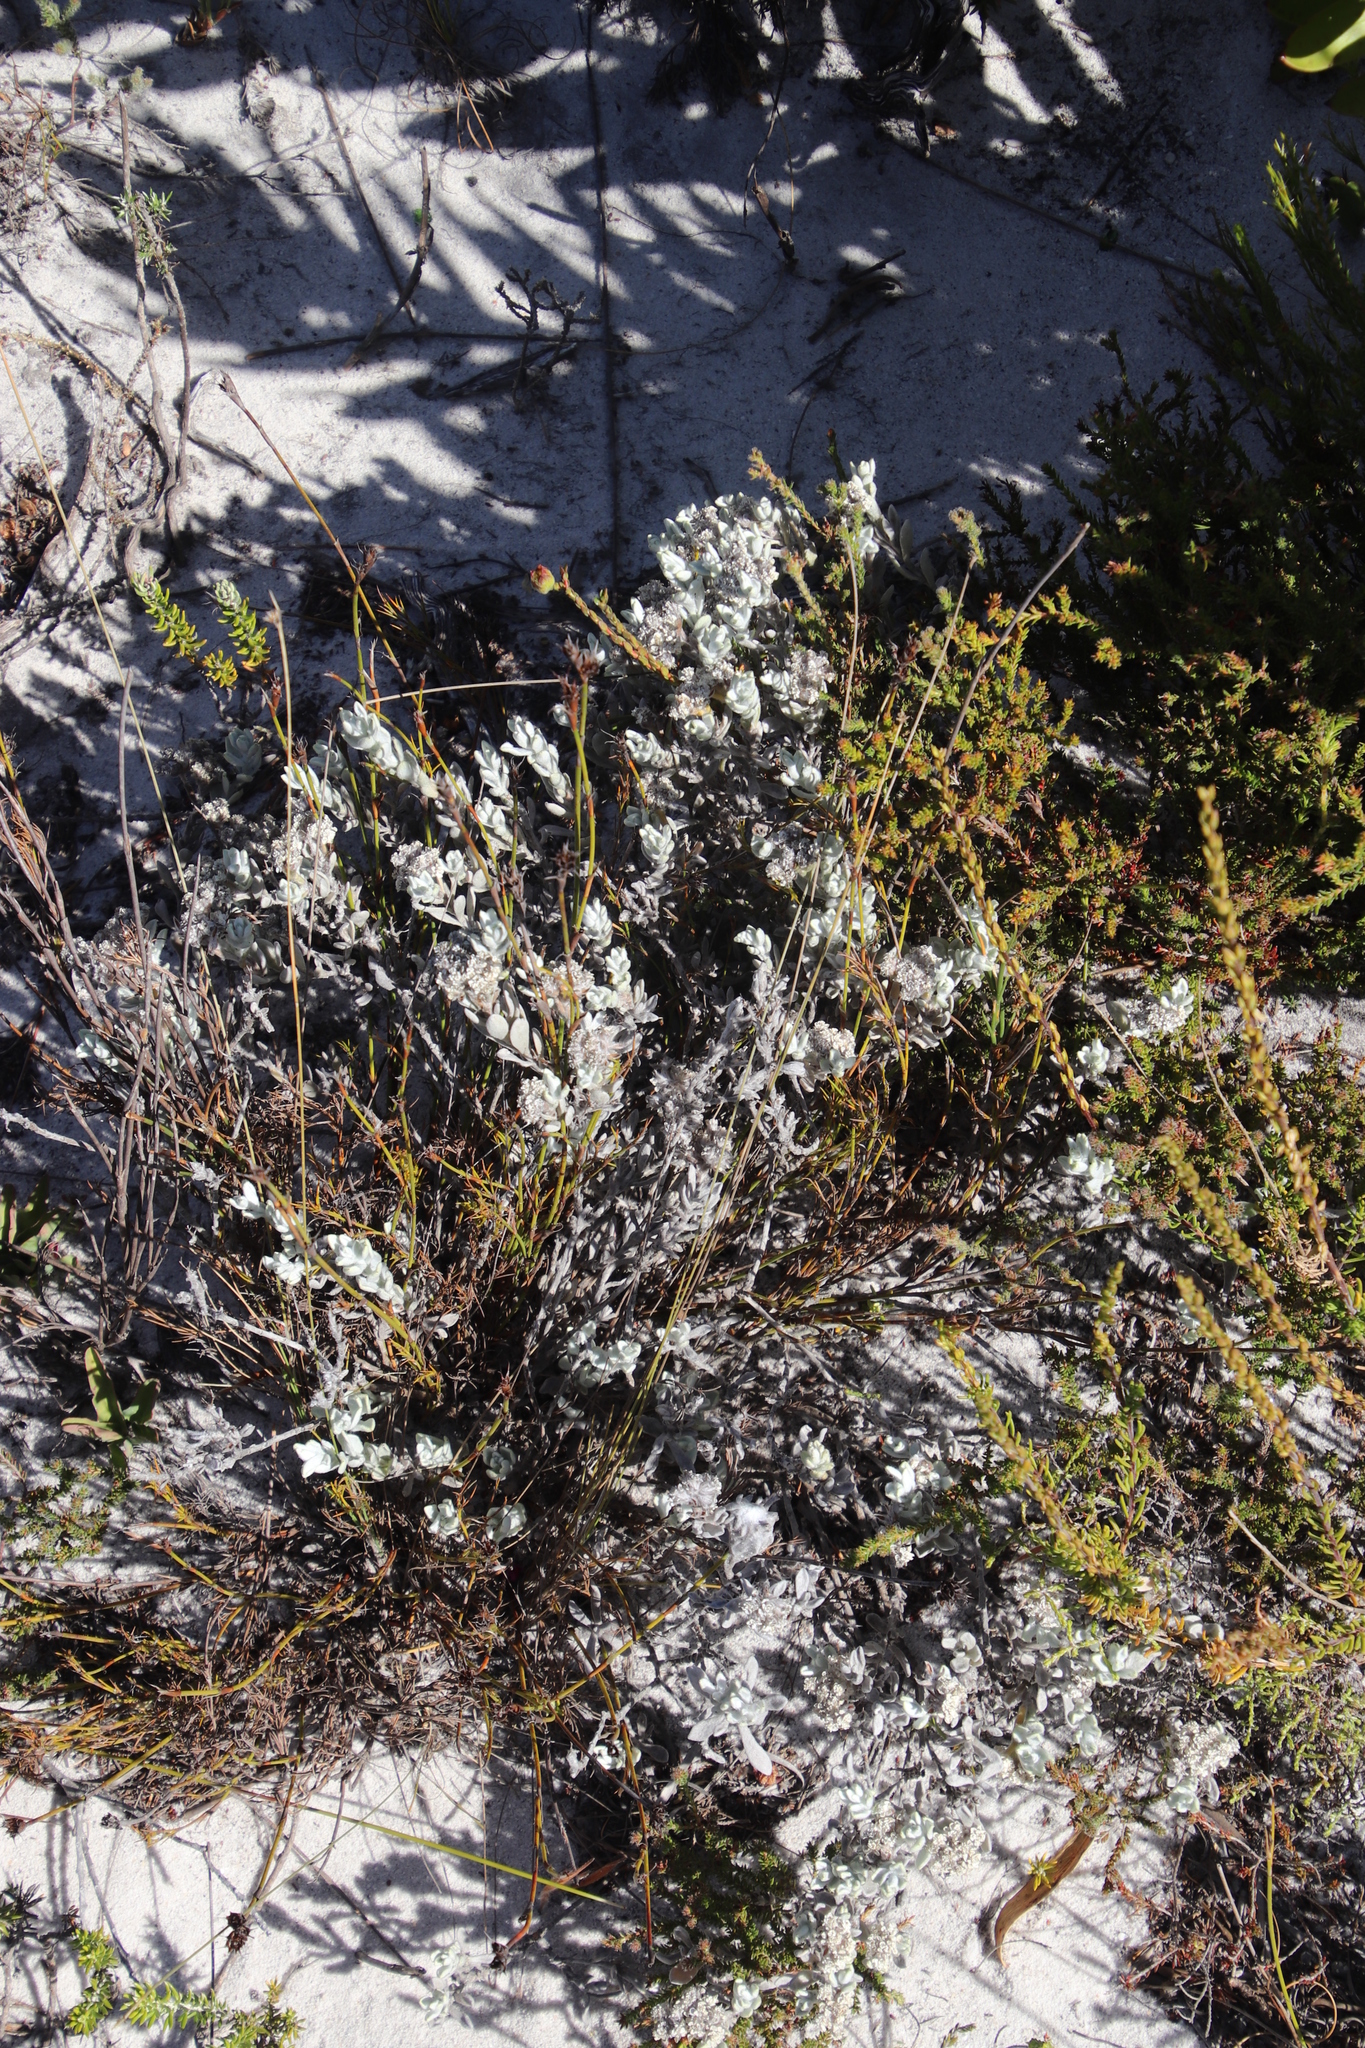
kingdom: Plantae
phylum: Tracheophyta
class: Magnoliopsida
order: Asterales
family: Asteraceae
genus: Petalacte
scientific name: Petalacte coronata
